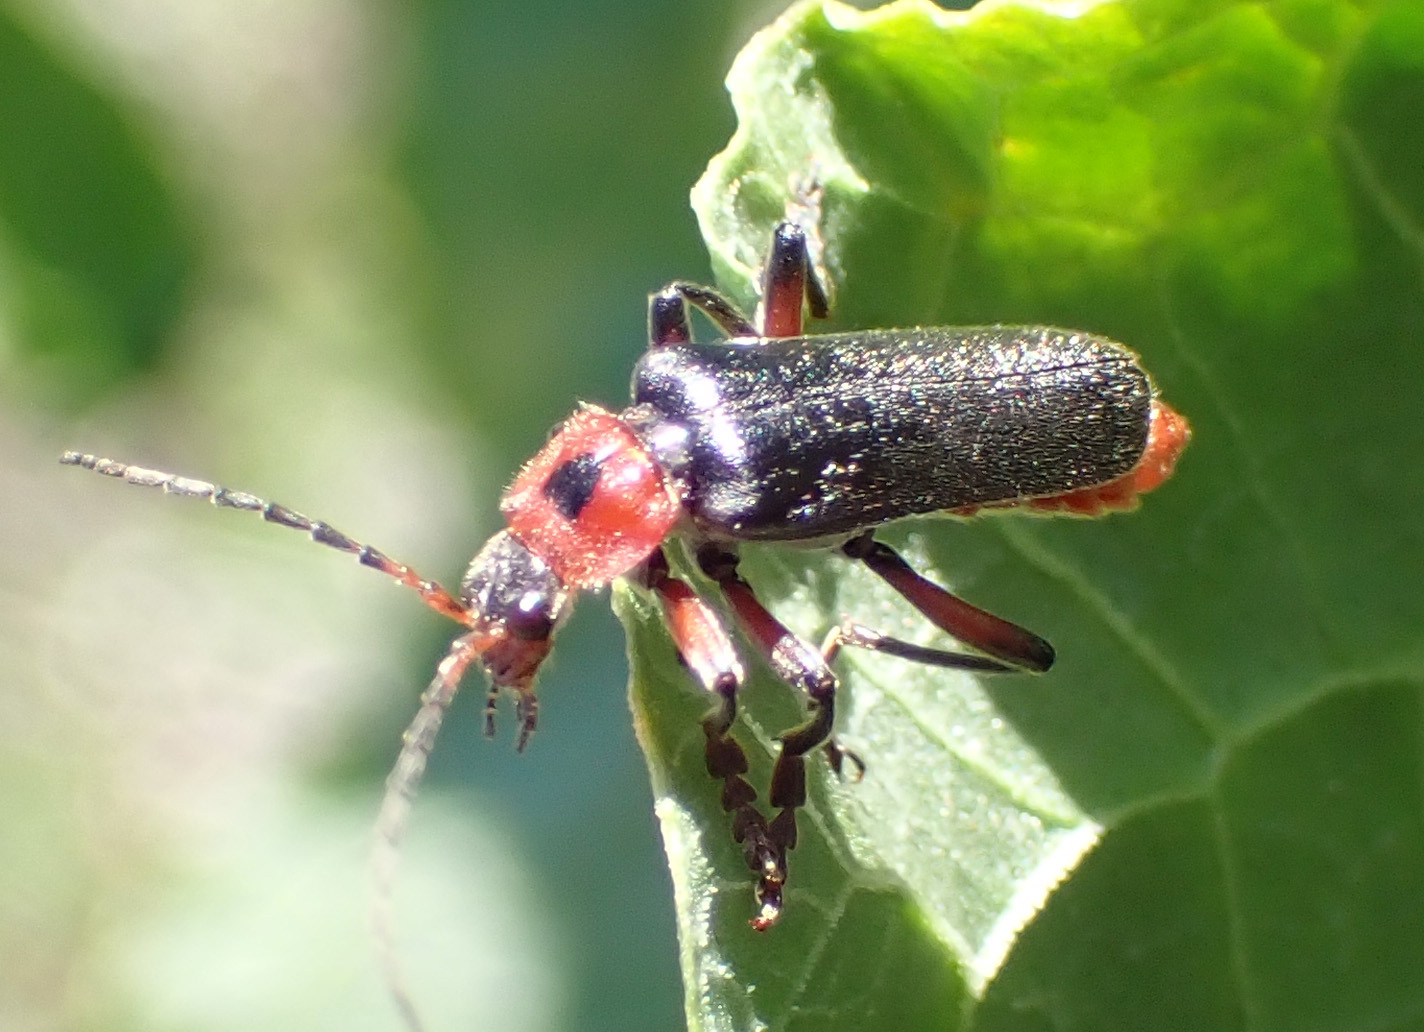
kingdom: Animalia
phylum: Arthropoda
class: Insecta
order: Coleoptera
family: Cantharidae
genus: Cantharis
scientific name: Cantharis rustica
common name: Soldier beetle
